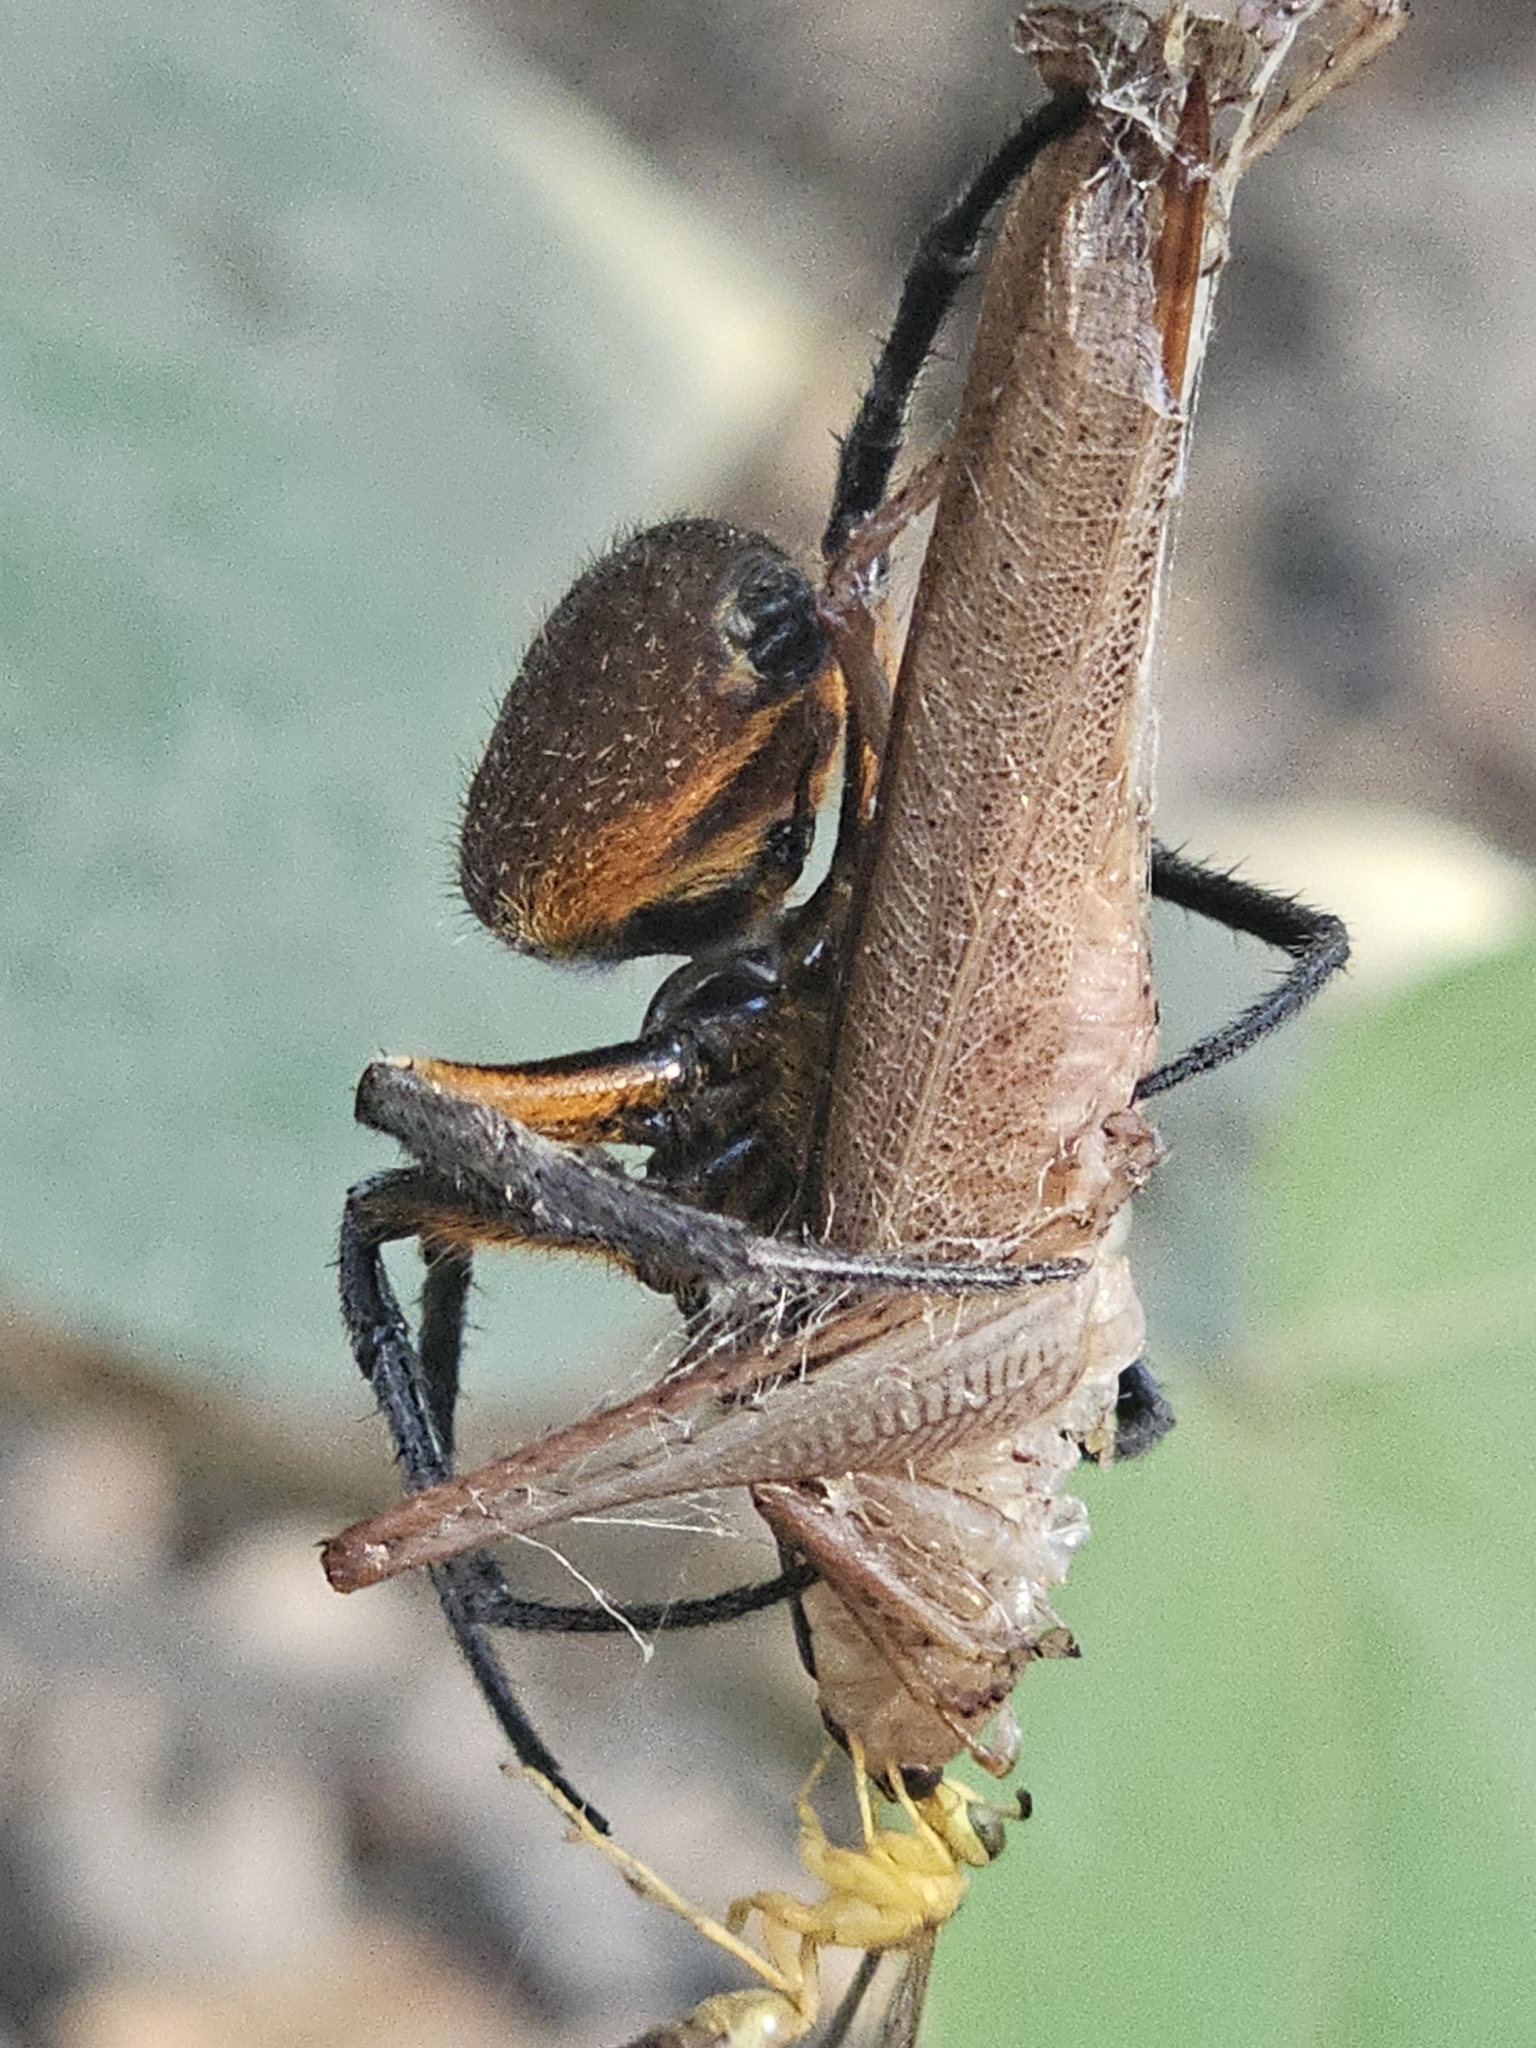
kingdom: Animalia
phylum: Arthropoda
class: Arachnida
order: Araneae
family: Araneidae
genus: Eriophora
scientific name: Eriophora fuliginea
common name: Orb weavers
